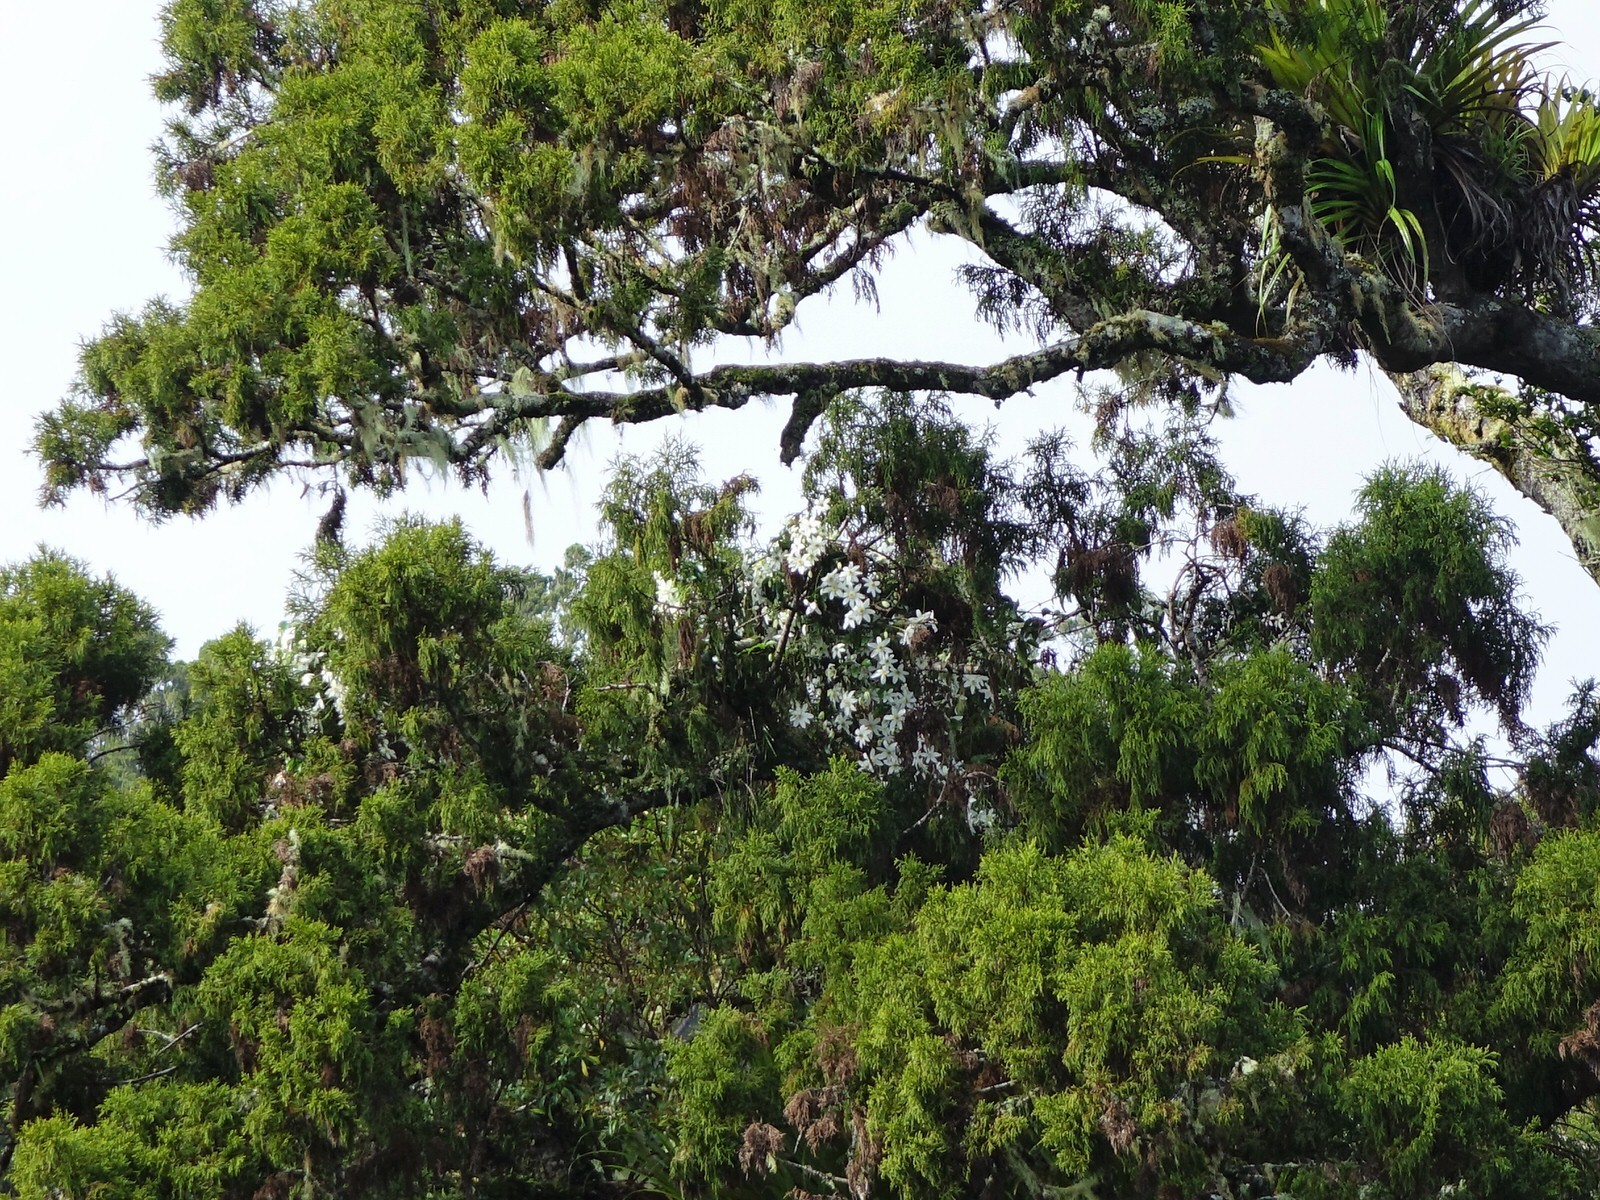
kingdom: Plantae
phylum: Tracheophyta
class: Magnoliopsida
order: Ranunculales
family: Ranunculaceae
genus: Clematis
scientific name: Clematis paniculata
